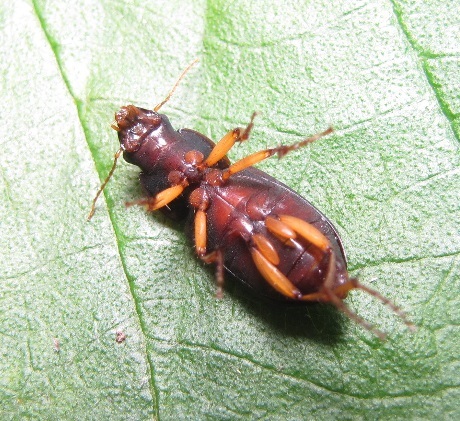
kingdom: Animalia
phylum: Arthropoda
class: Insecta
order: Coleoptera
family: Carabidae
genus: Harpalus
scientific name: Harpalus pensylvanicus
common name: Pennsylvania dingy ground beetle
